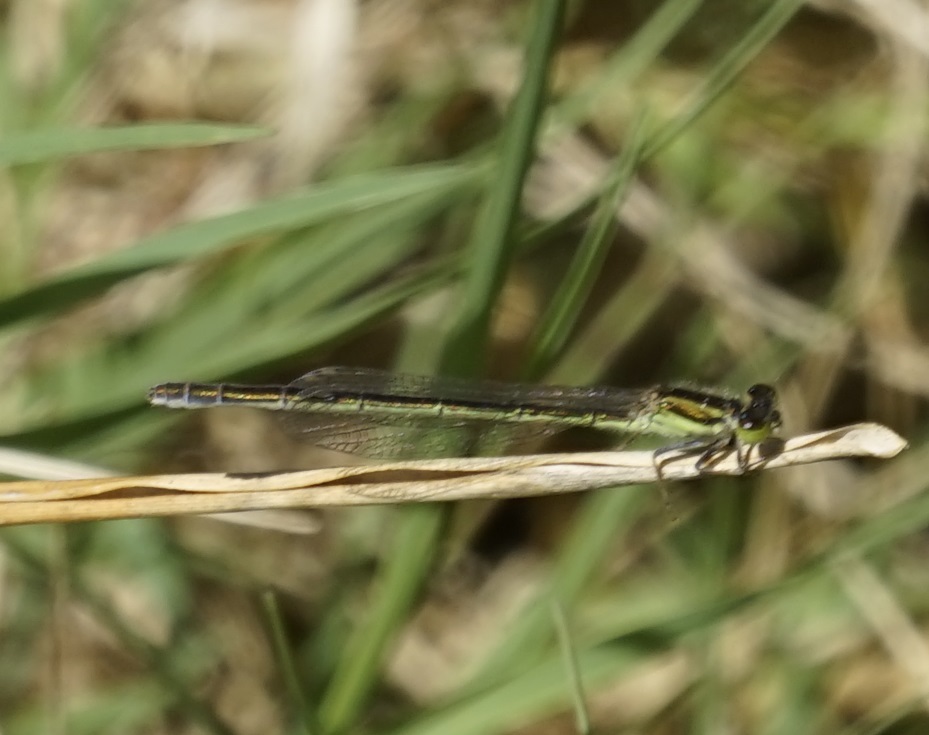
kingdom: Animalia
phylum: Arthropoda
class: Insecta
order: Odonata
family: Coenagrionidae
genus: Ischnura
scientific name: Ischnura aurora
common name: Gossamer damselfly
